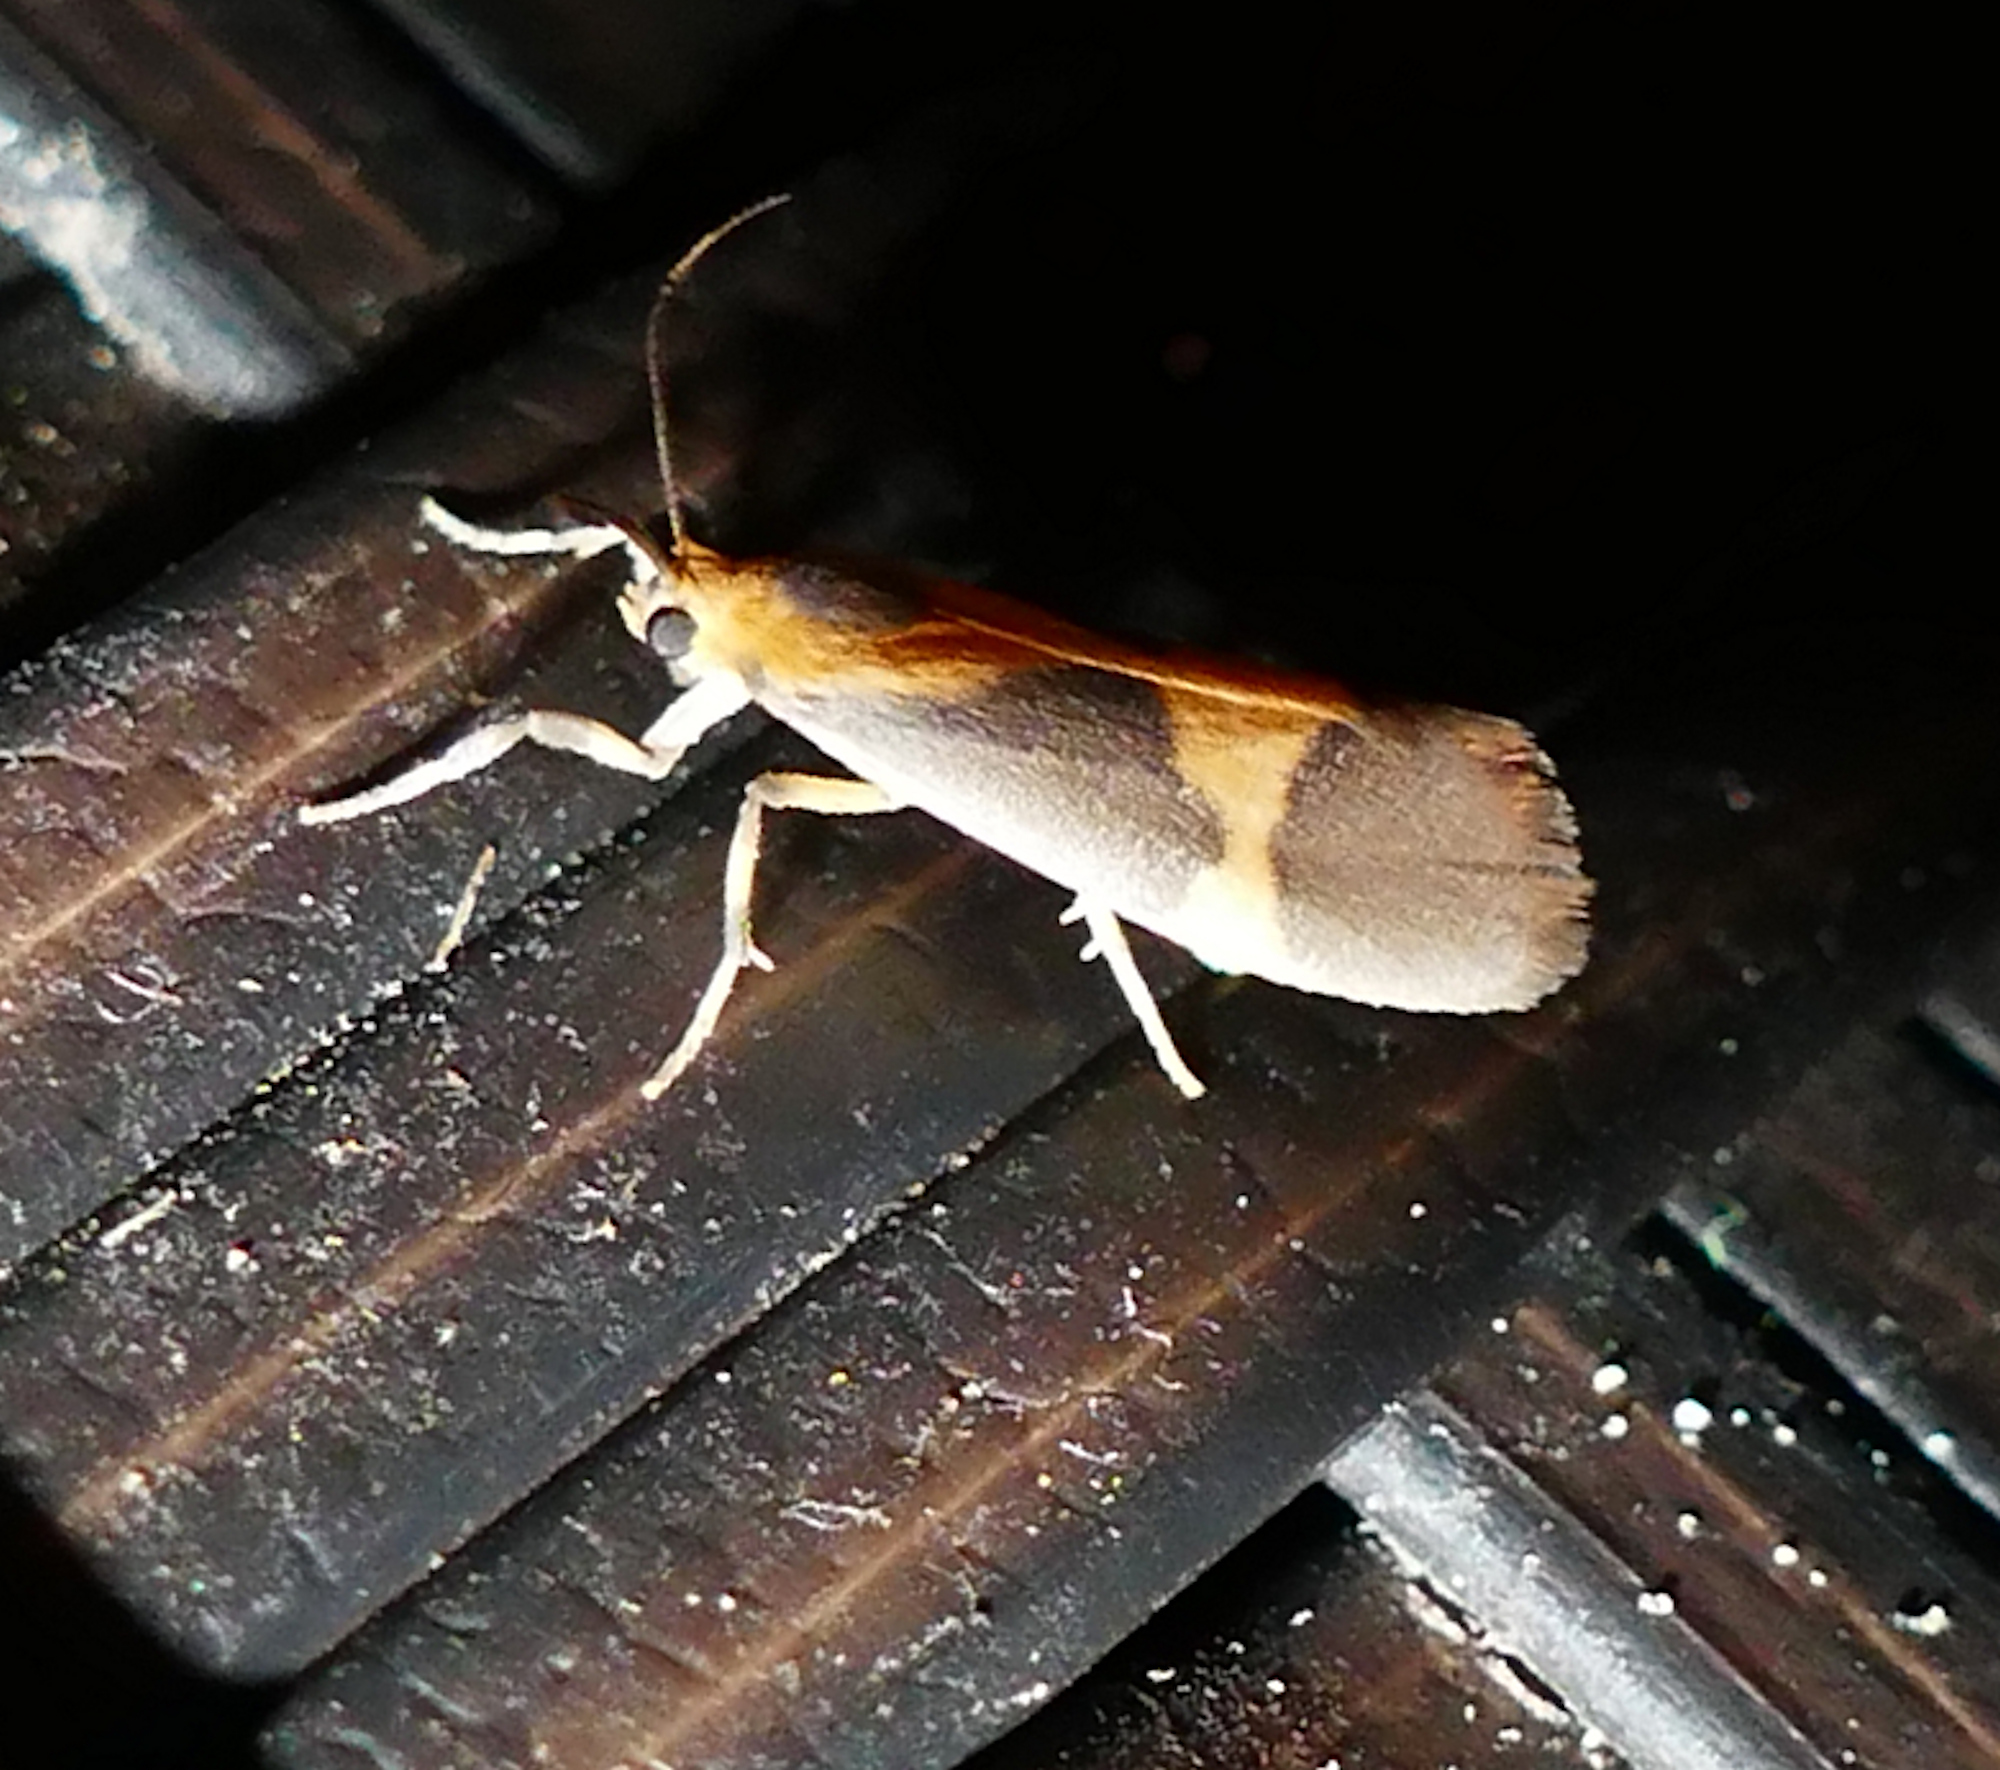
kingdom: Animalia
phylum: Arthropoda
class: Insecta
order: Lepidoptera
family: Erebidae
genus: Cisthene
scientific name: Cisthene unifascia
